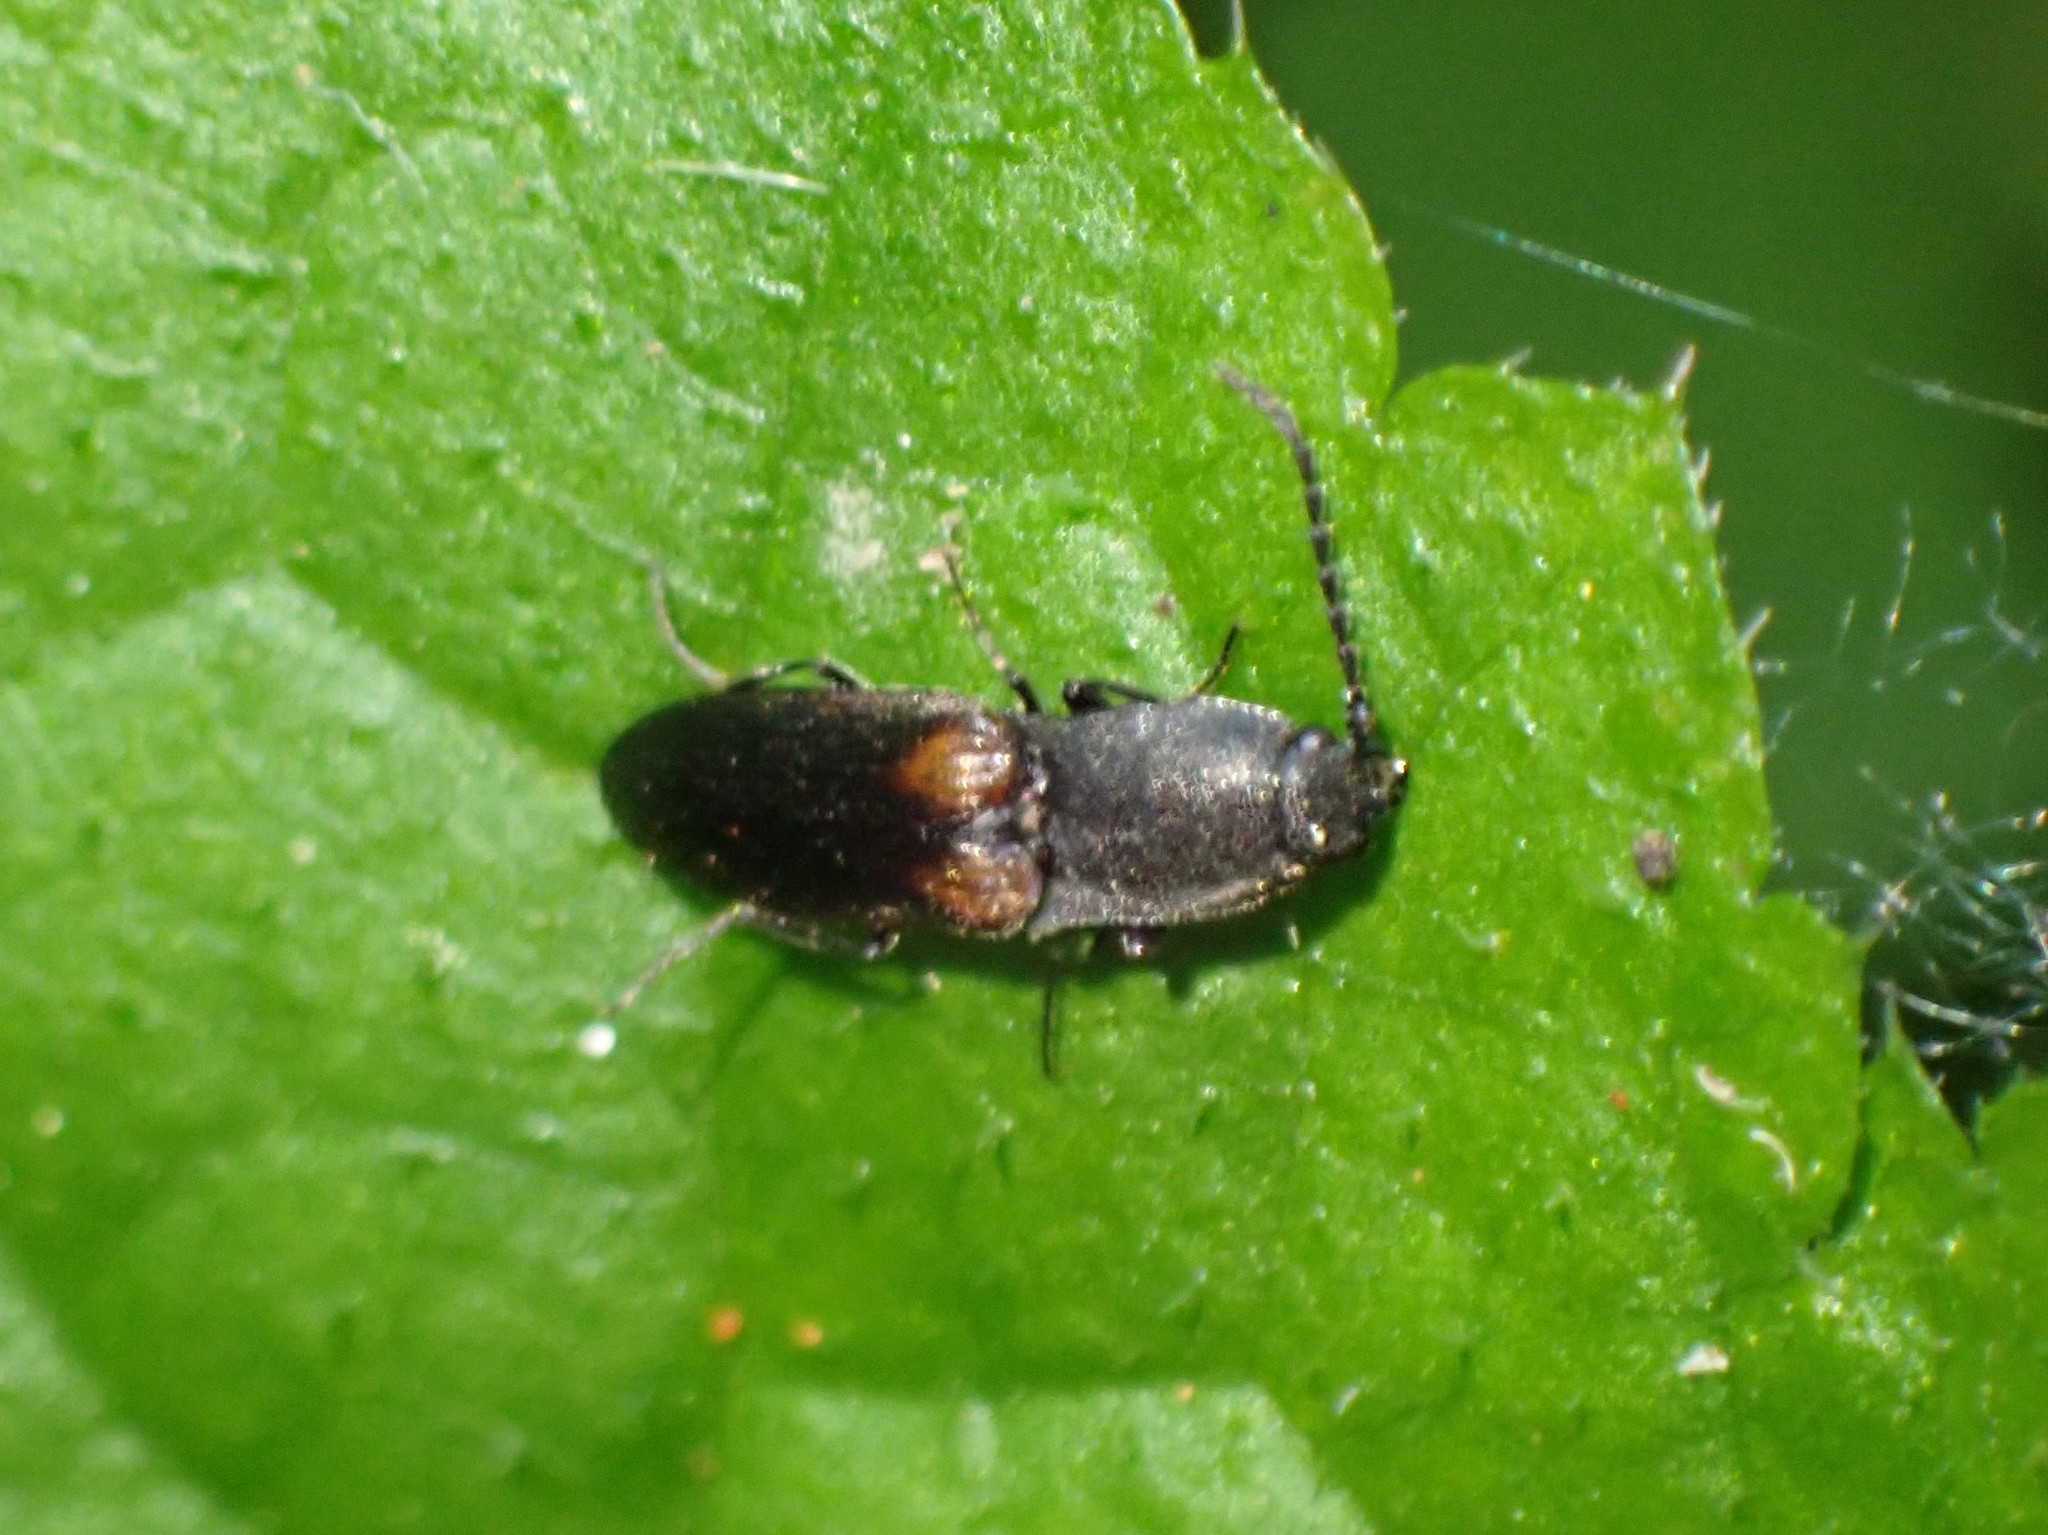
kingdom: Animalia
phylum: Arthropoda
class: Insecta
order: Coleoptera
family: Elateridae
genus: Corymbitodes
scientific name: Corymbitodes
